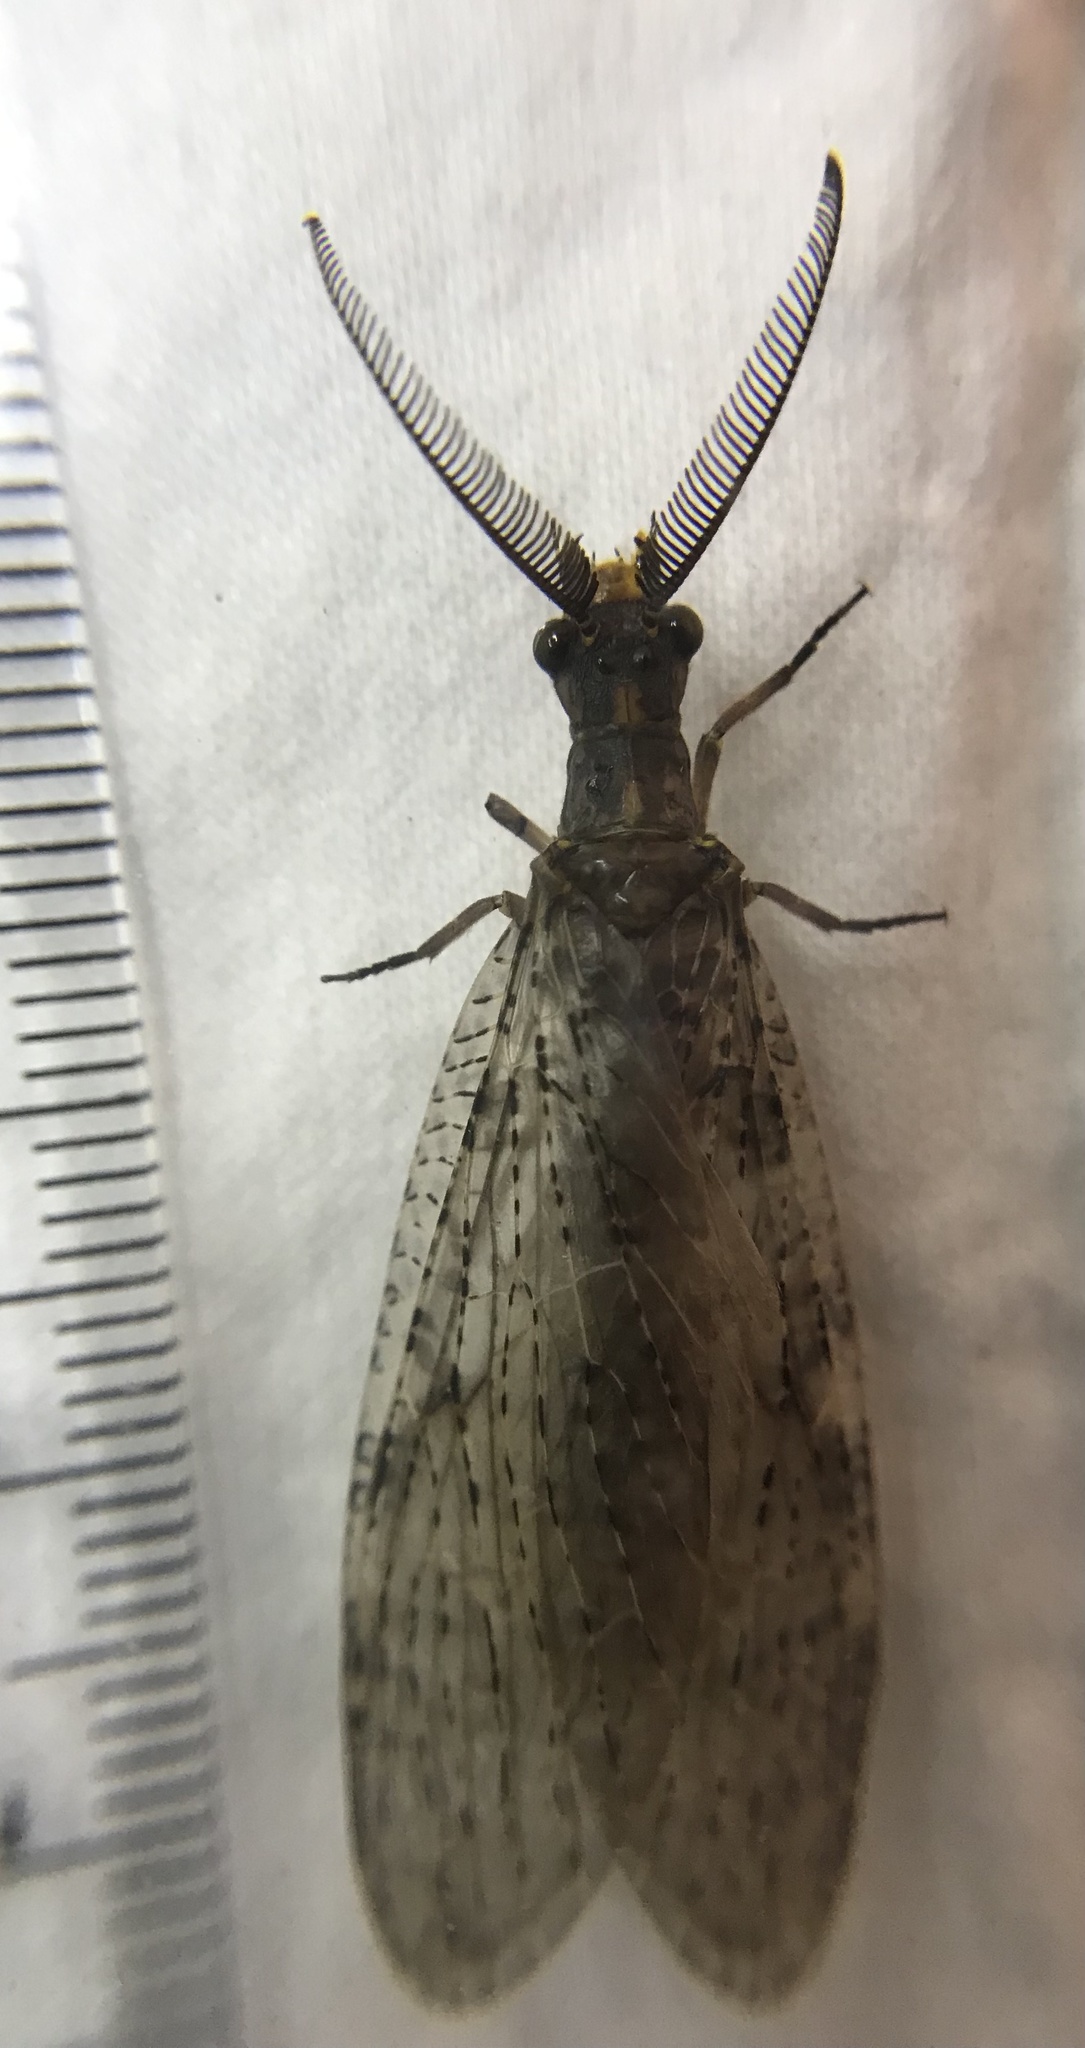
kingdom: Animalia
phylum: Arthropoda
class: Insecta
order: Megaloptera
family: Corydalidae
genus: Chauliodes
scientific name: Chauliodes pectinicornis
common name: Summer fishfly
